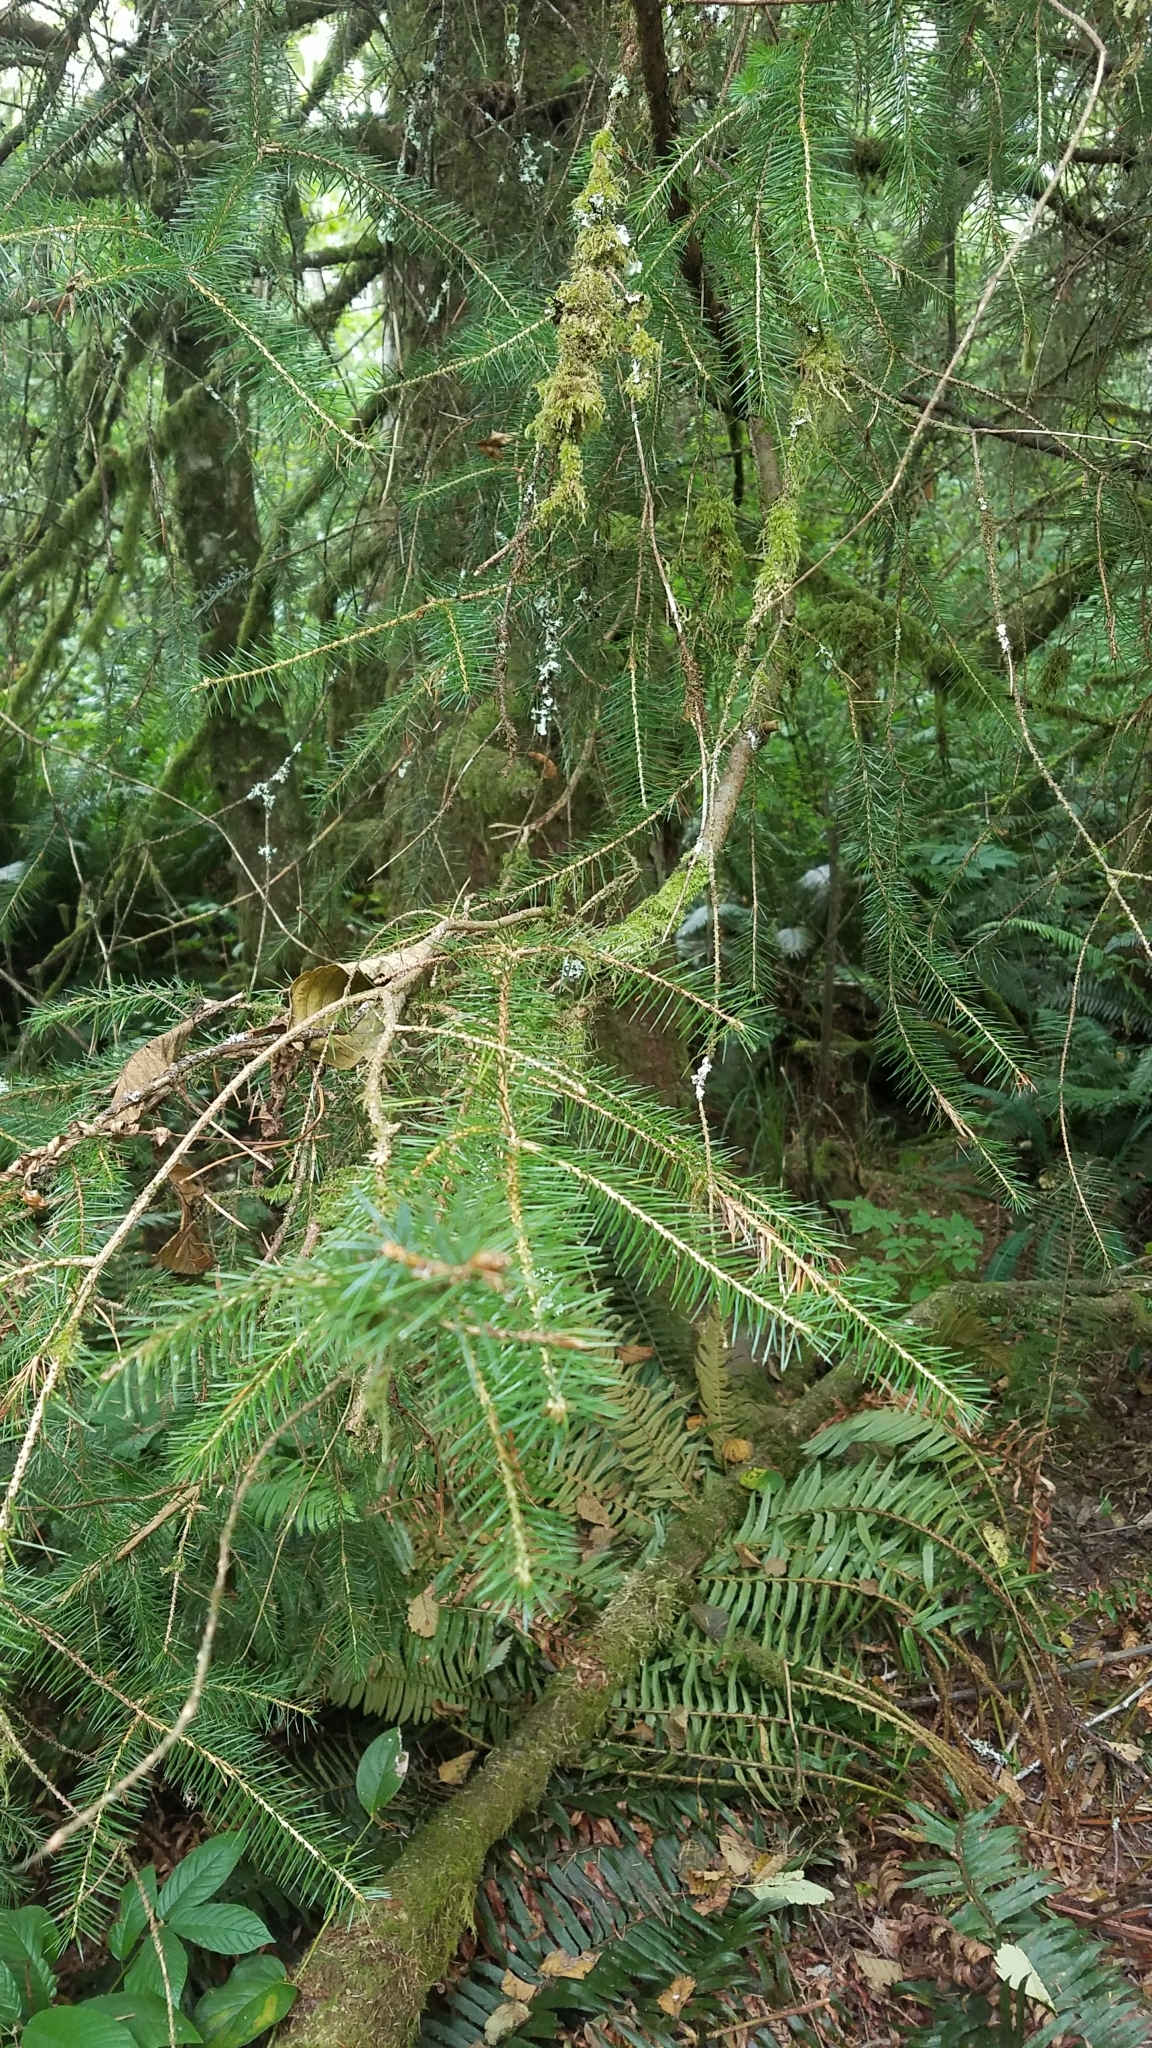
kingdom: Plantae
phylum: Tracheophyta
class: Pinopsida
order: Pinales
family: Pinaceae
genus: Pseudotsuga
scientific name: Pseudotsuga menziesii
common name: Douglas fir
